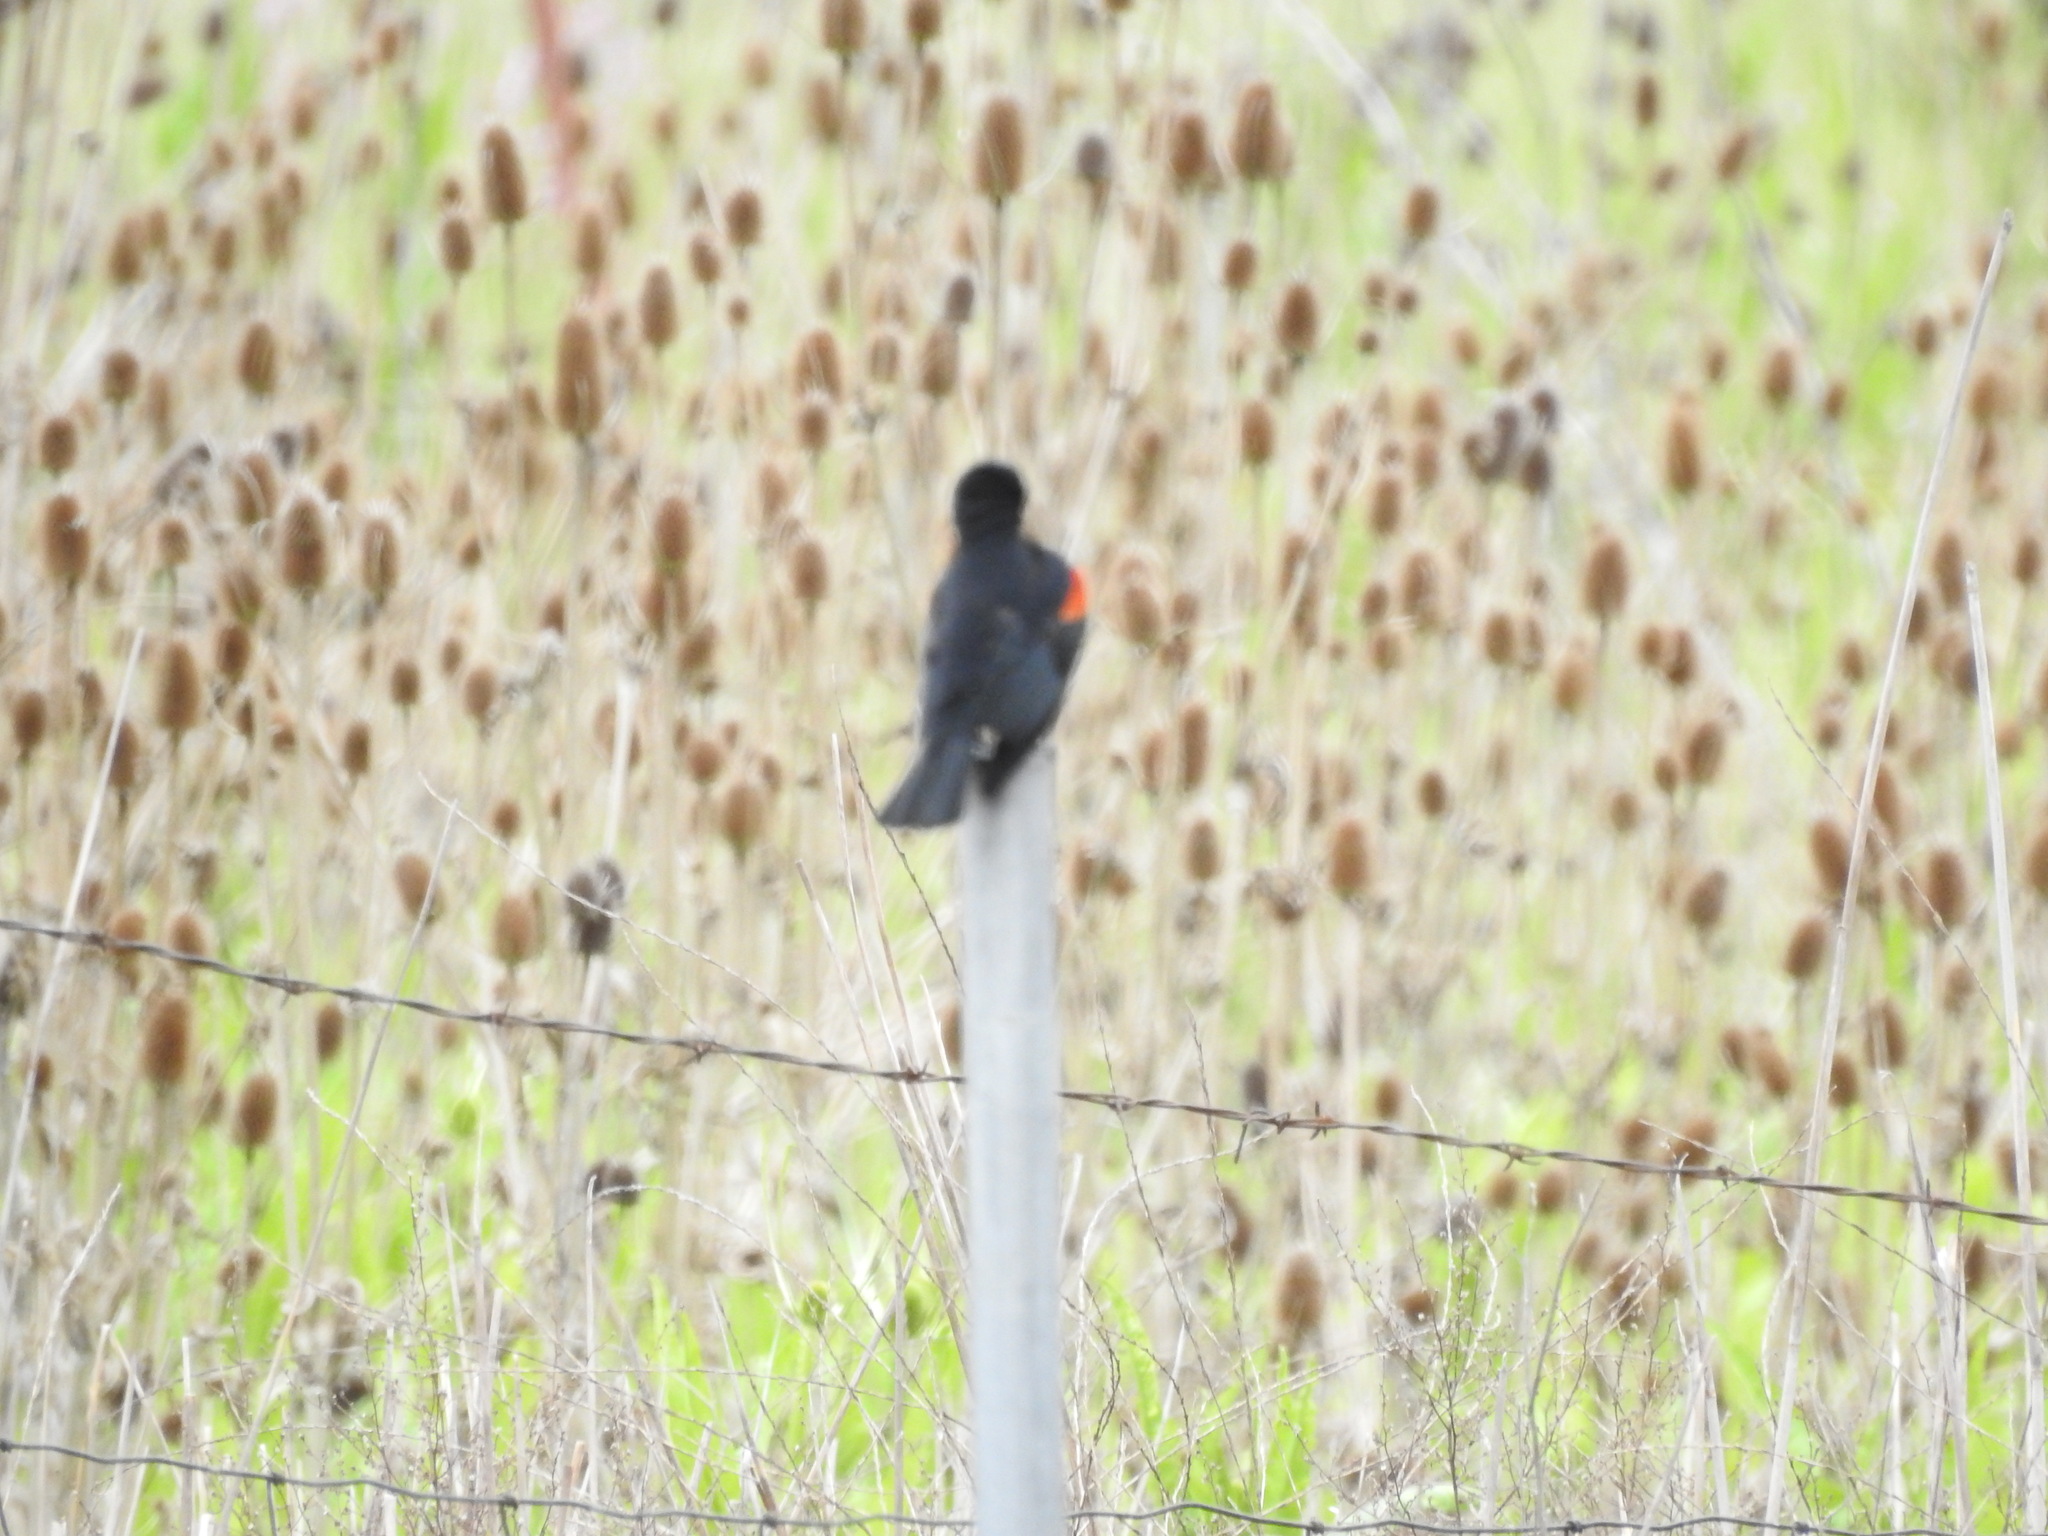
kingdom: Animalia
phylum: Chordata
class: Aves
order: Passeriformes
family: Icteridae
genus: Agelaius
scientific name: Agelaius phoeniceus
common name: Red-winged blackbird
